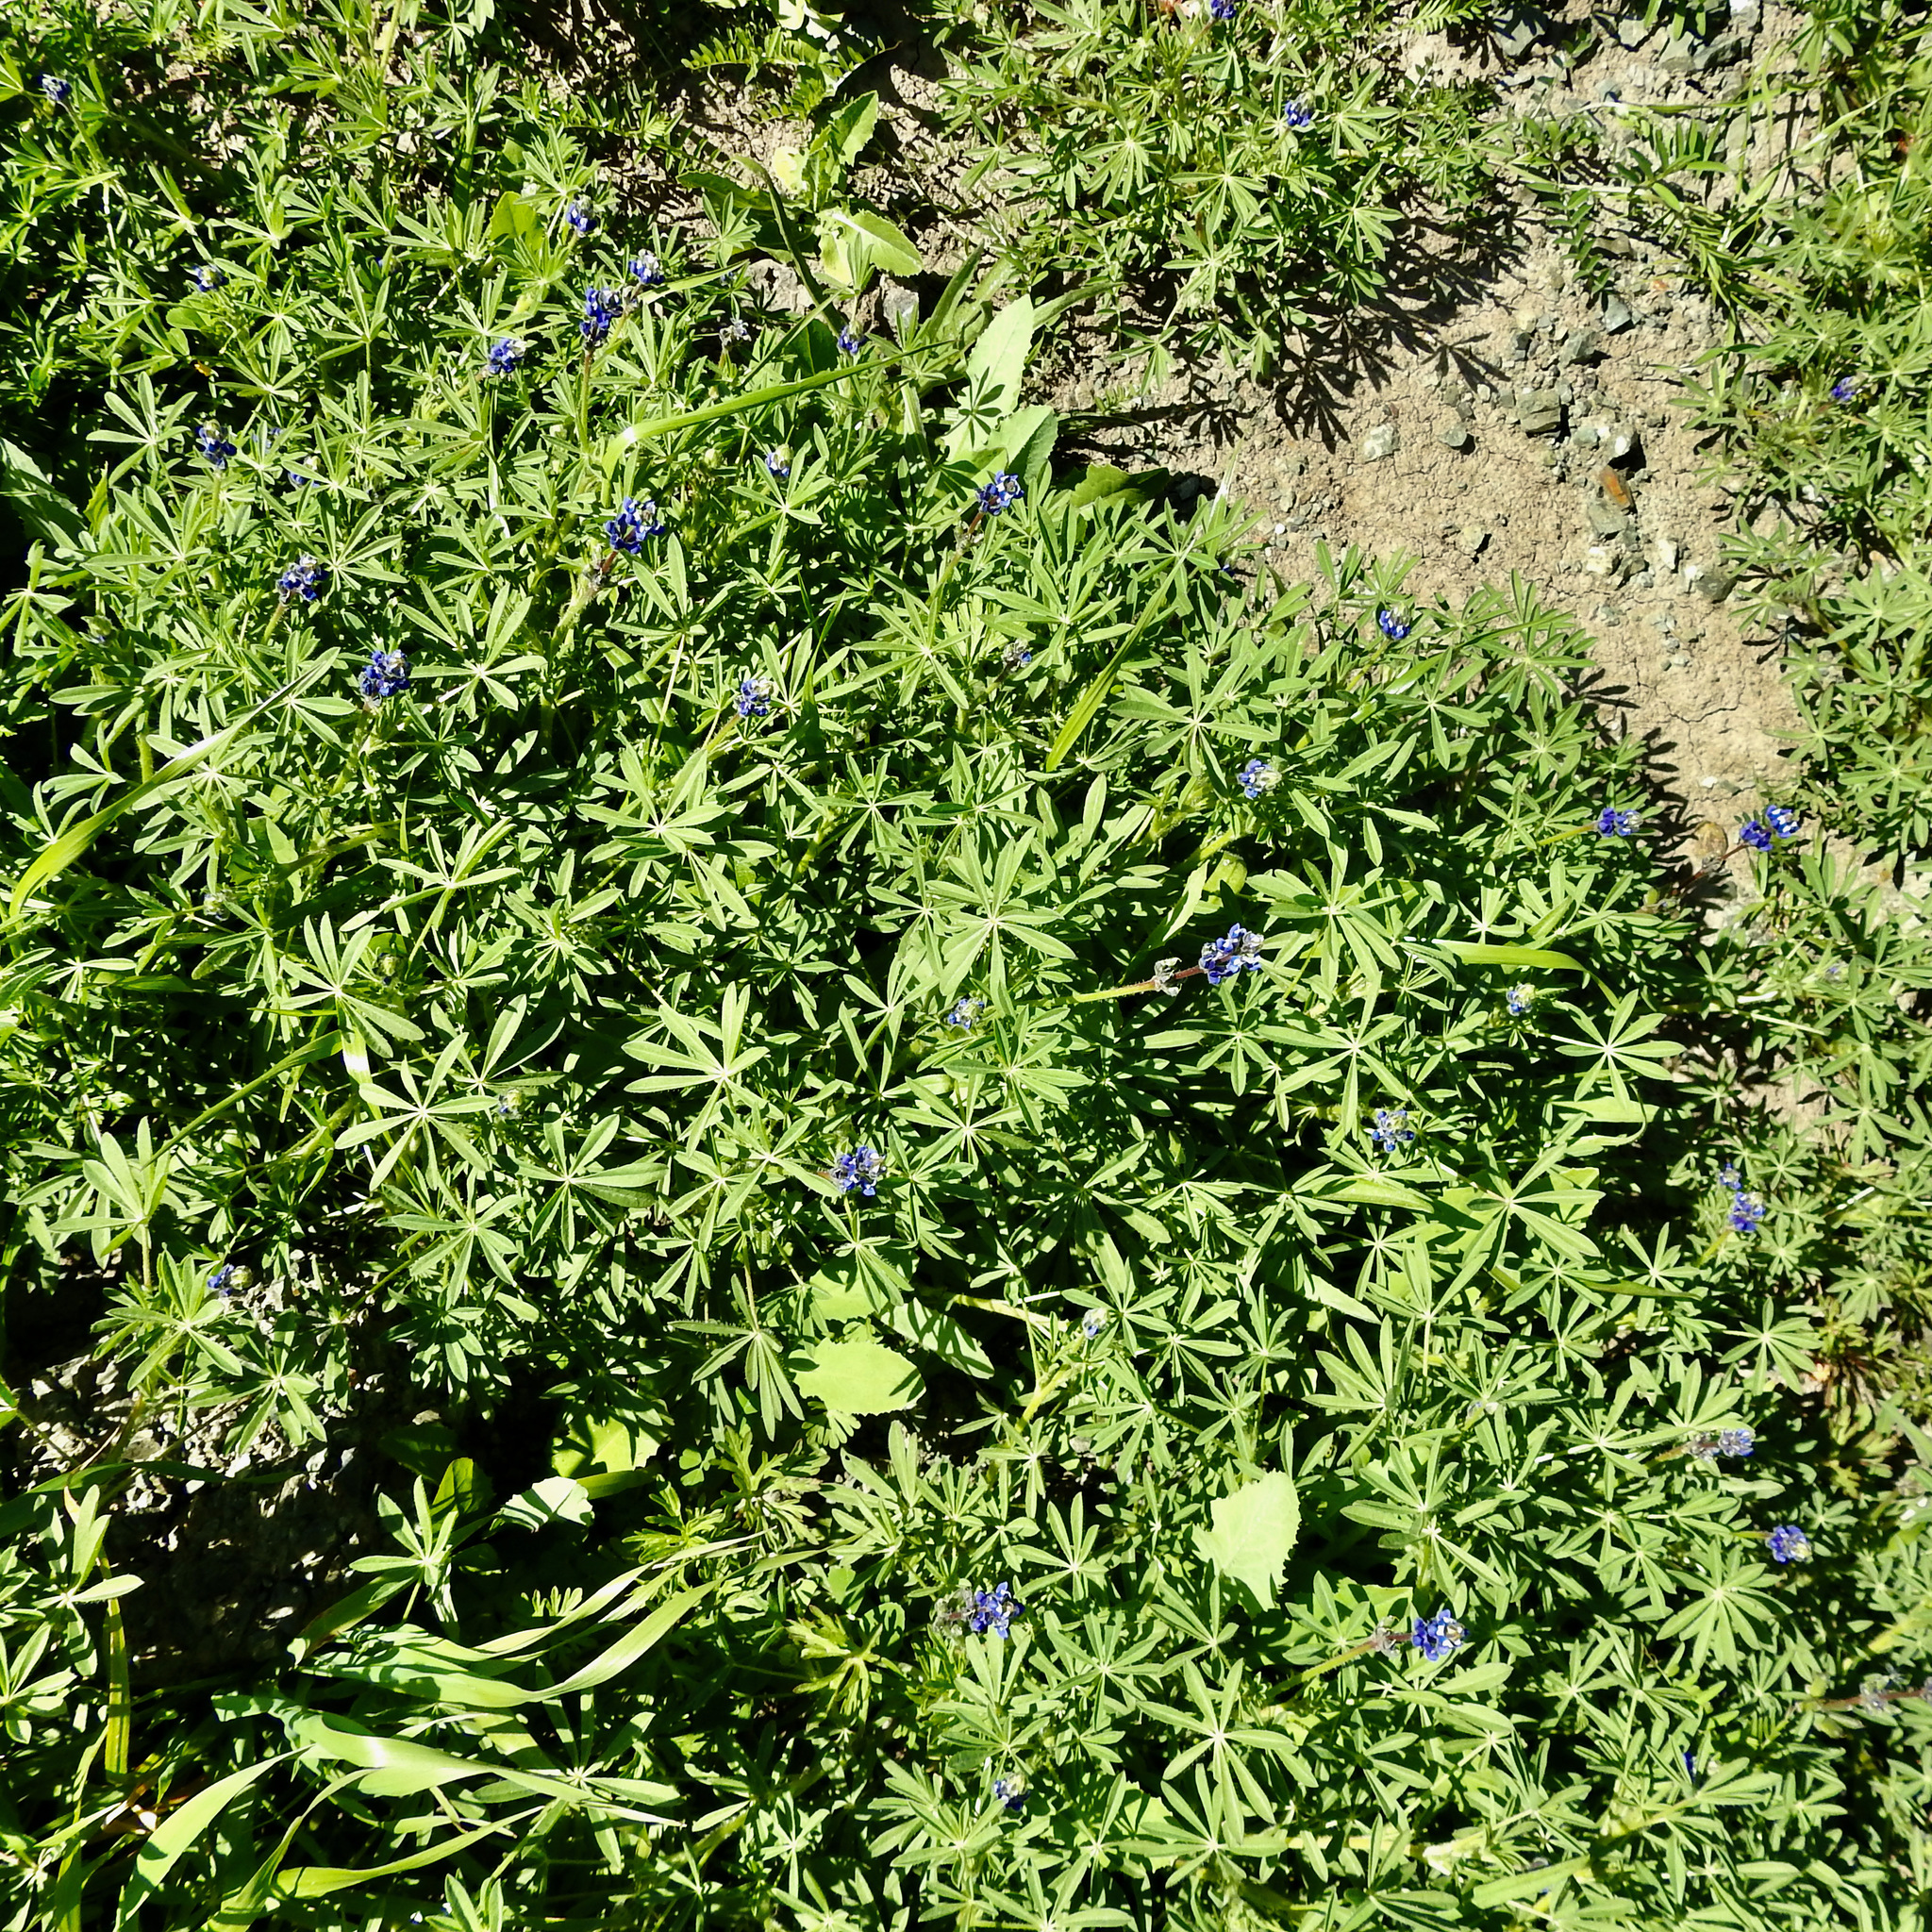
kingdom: Plantae
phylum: Tracheophyta
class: Magnoliopsida
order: Fabales
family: Fabaceae
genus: Lupinus
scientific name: Lupinus bicolor
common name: Miniature lupine
